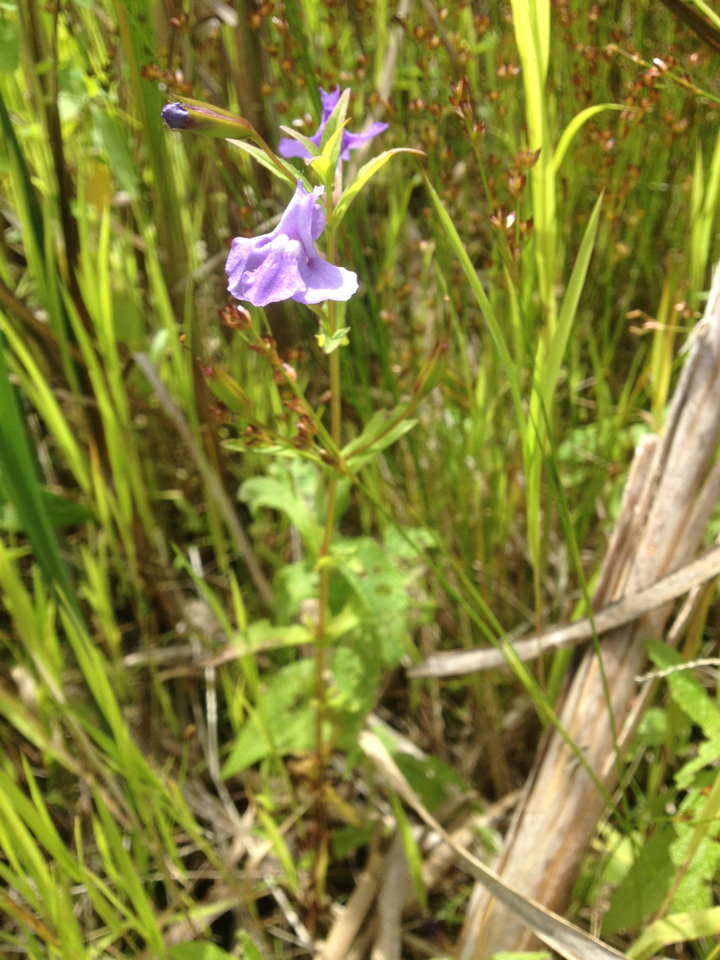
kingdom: Plantae
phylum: Tracheophyta
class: Magnoliopsida
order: Lamiales
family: Phrymaceae
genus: Mimulus
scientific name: Mimulus ringens
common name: Allegheny monkeyflower
